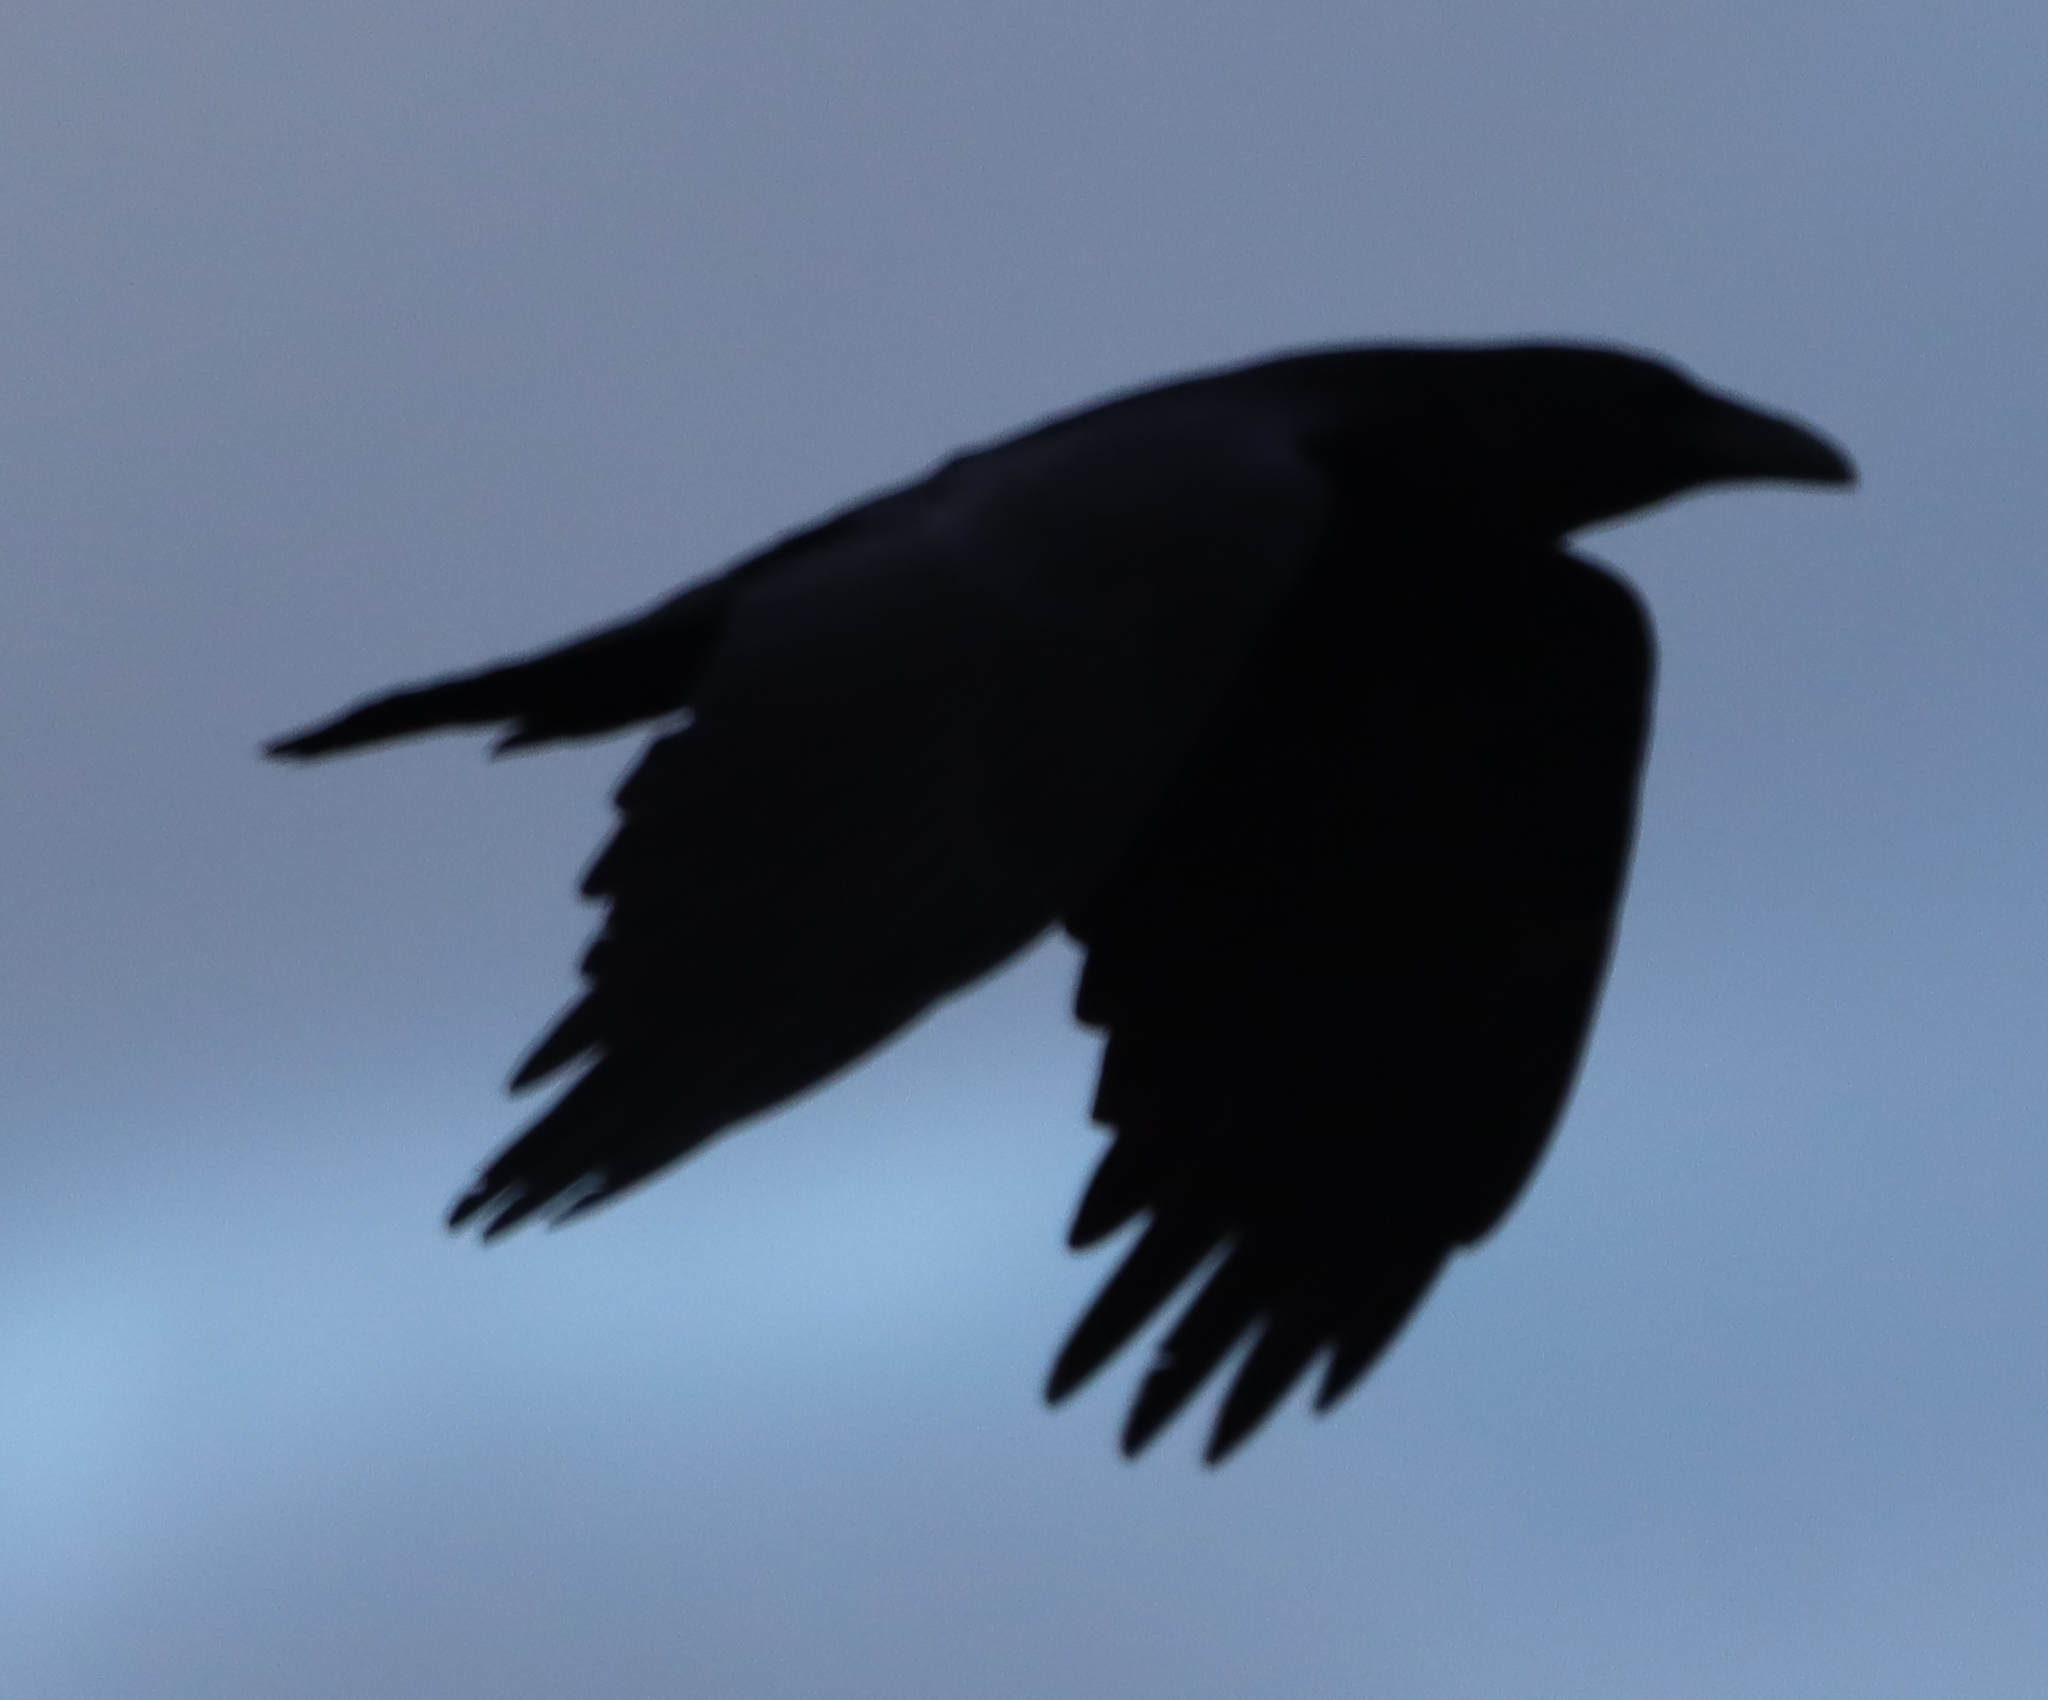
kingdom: Animalia
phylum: Chordata
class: Aves
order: Passeriformes
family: Corvidae
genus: Corvus
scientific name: Corvus corax
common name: Common raven
